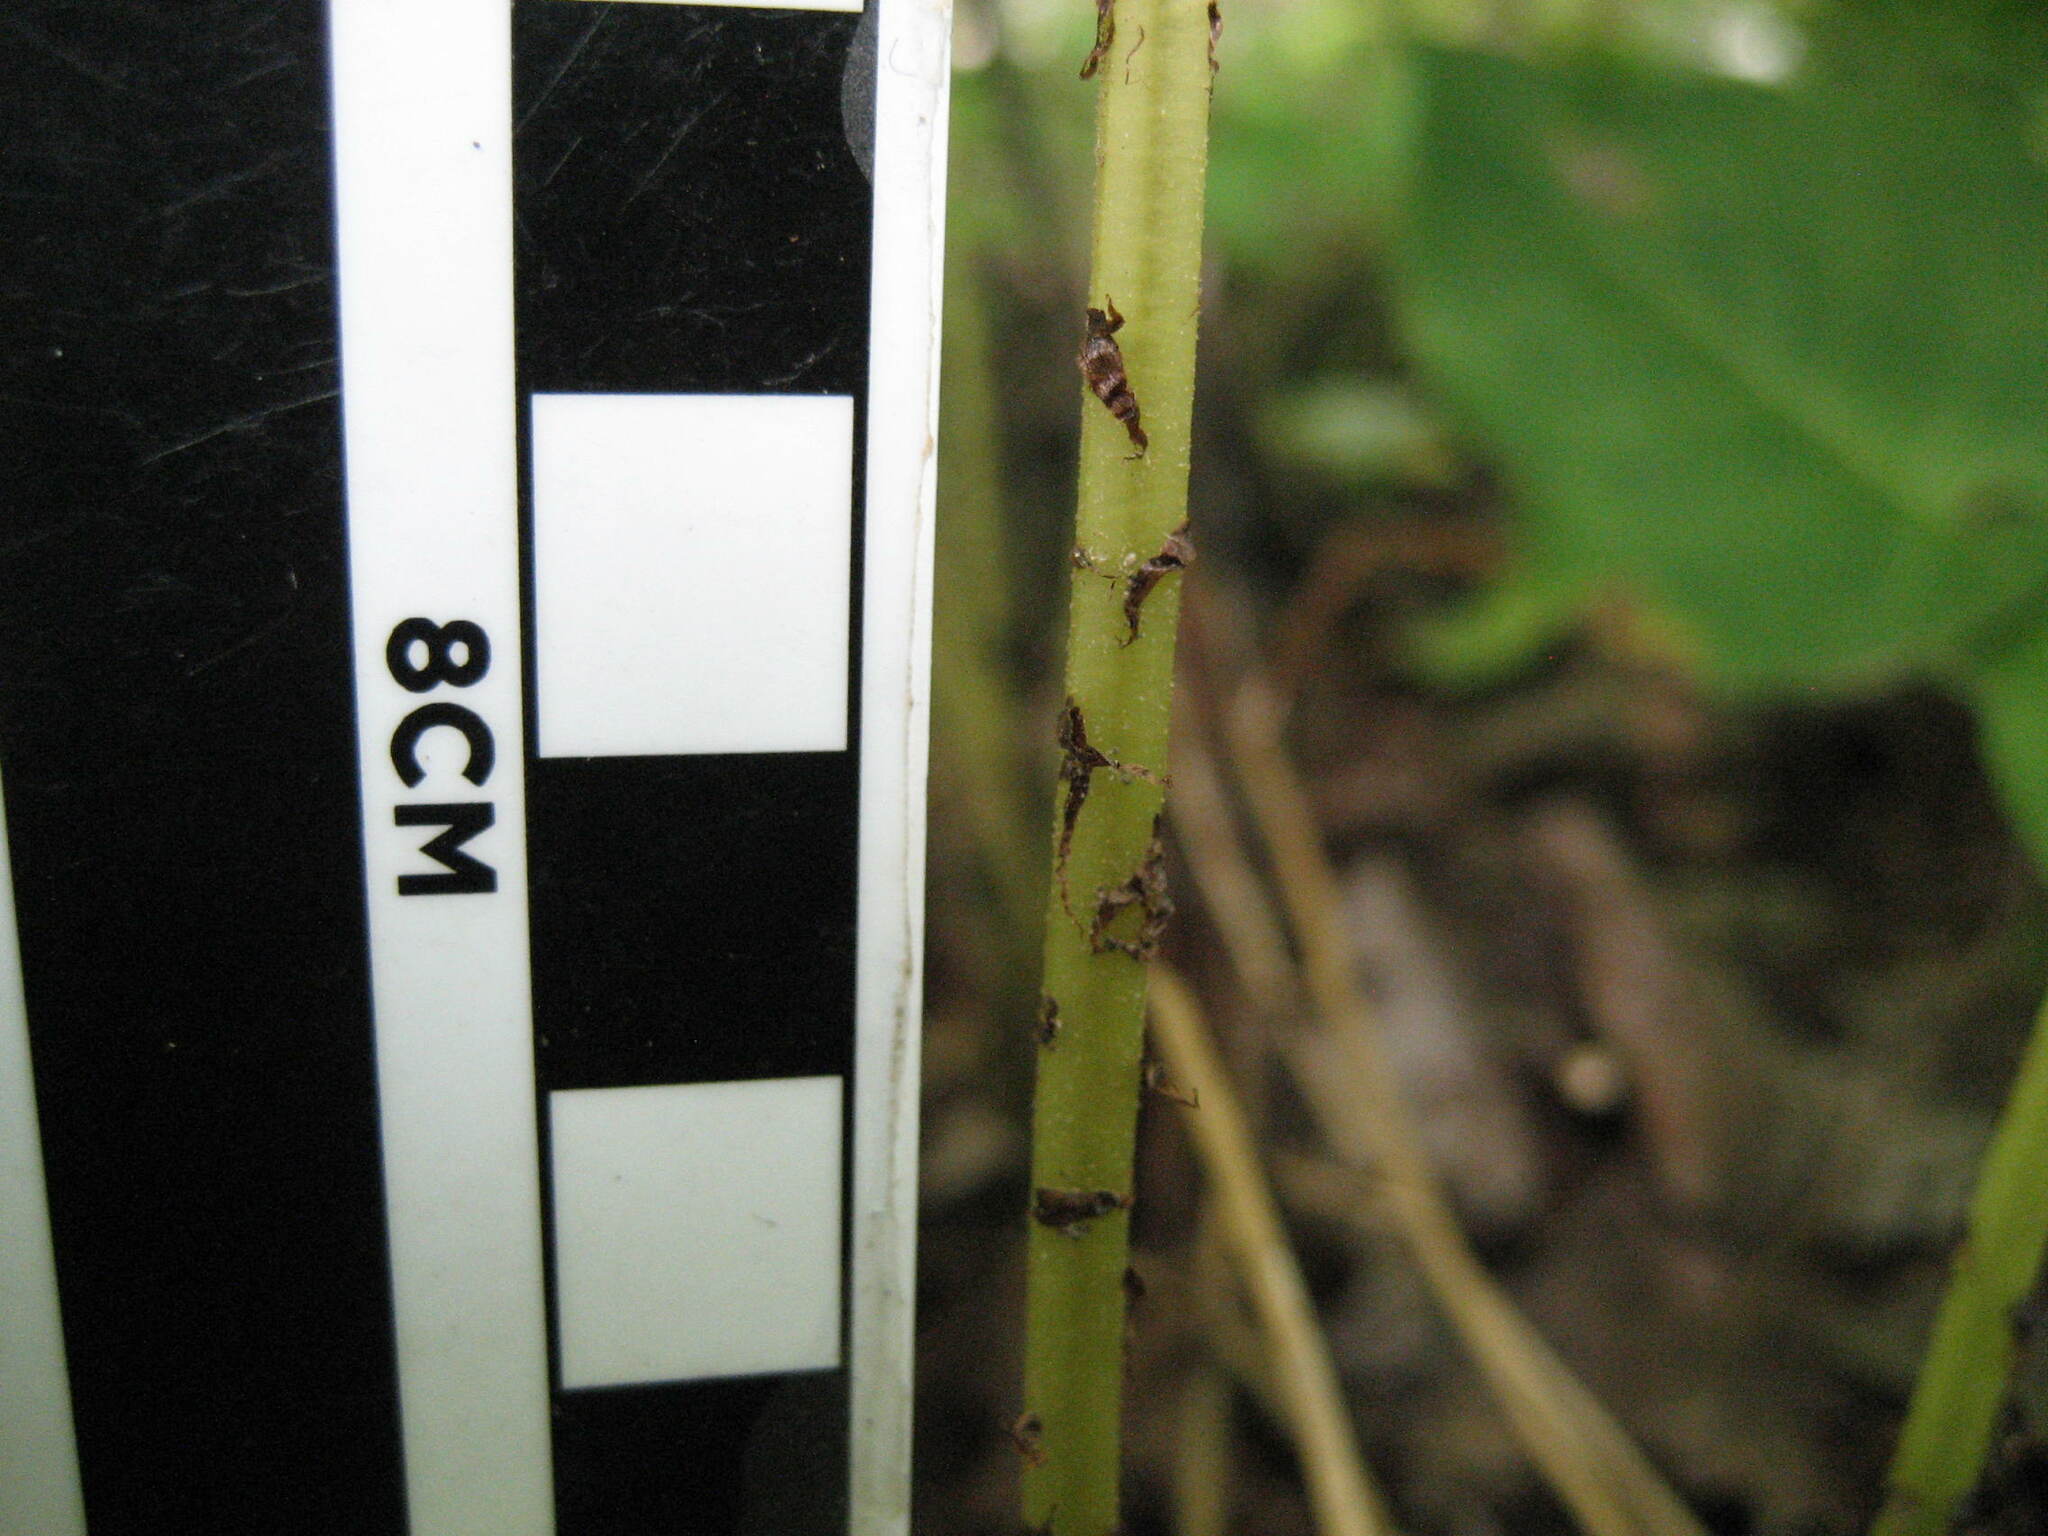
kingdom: Plantae
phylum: Tracheophyta
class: Polypodiopsida
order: Polypodiales
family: Athyriaceae
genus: Athyrium
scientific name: Athyrium angustum
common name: Northern lady fern
